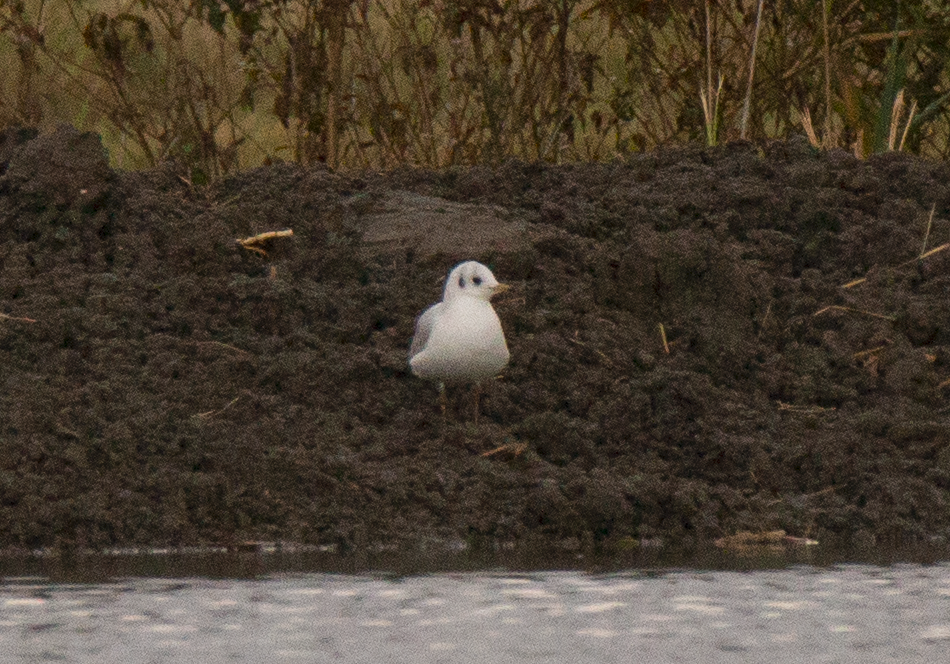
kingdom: Animalia
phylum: Chordata
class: Aves
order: Charadriiformes
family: Laridae
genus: Chroicocephalus
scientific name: Chroicocephalus ridibundus
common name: Black-headed gull
